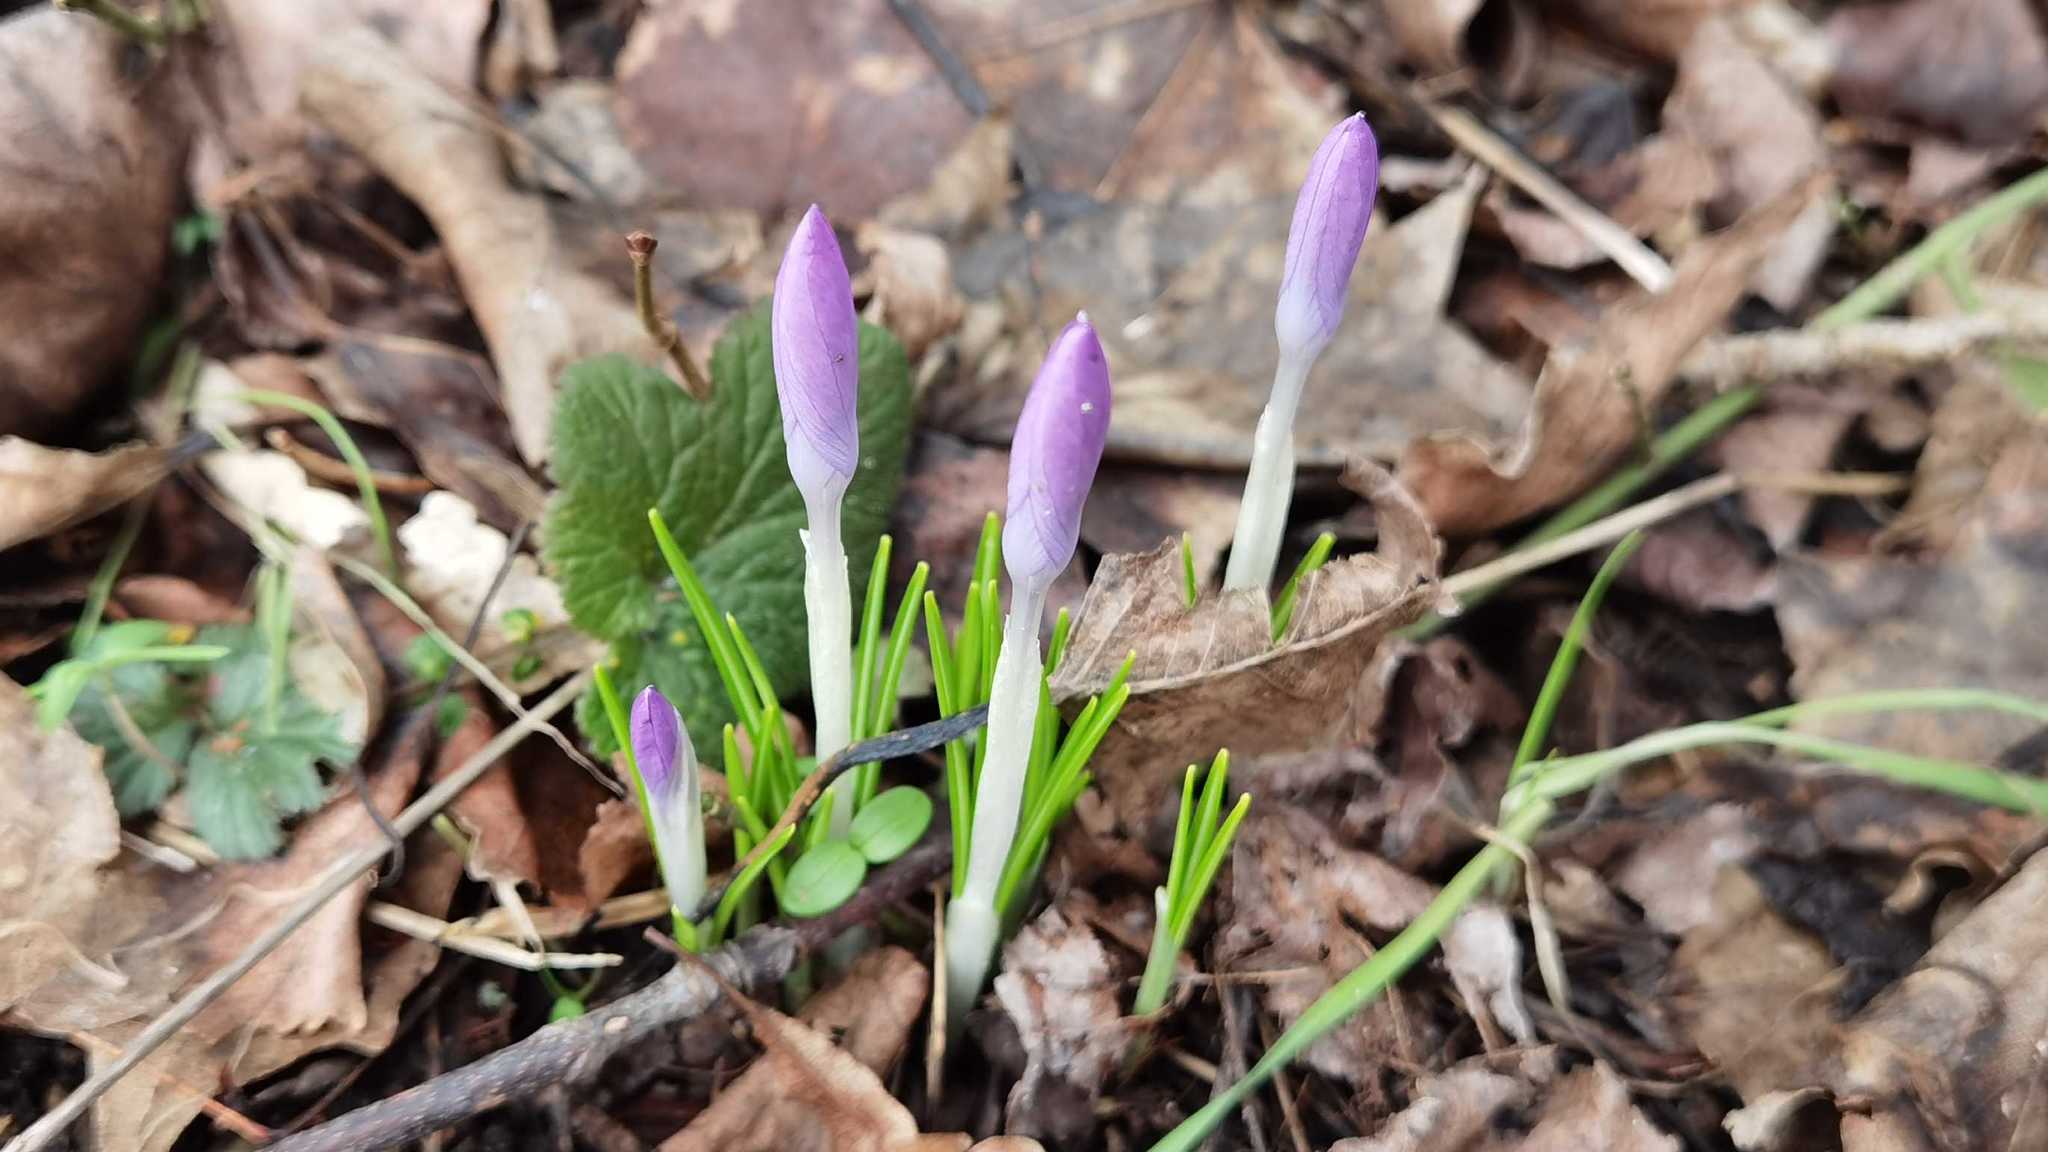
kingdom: Plantae
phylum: Tracheophyta
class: Liliopsida
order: Asparagales
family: Iridaceae
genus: Crocus
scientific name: Crocus tommasinianus
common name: Early crocus
